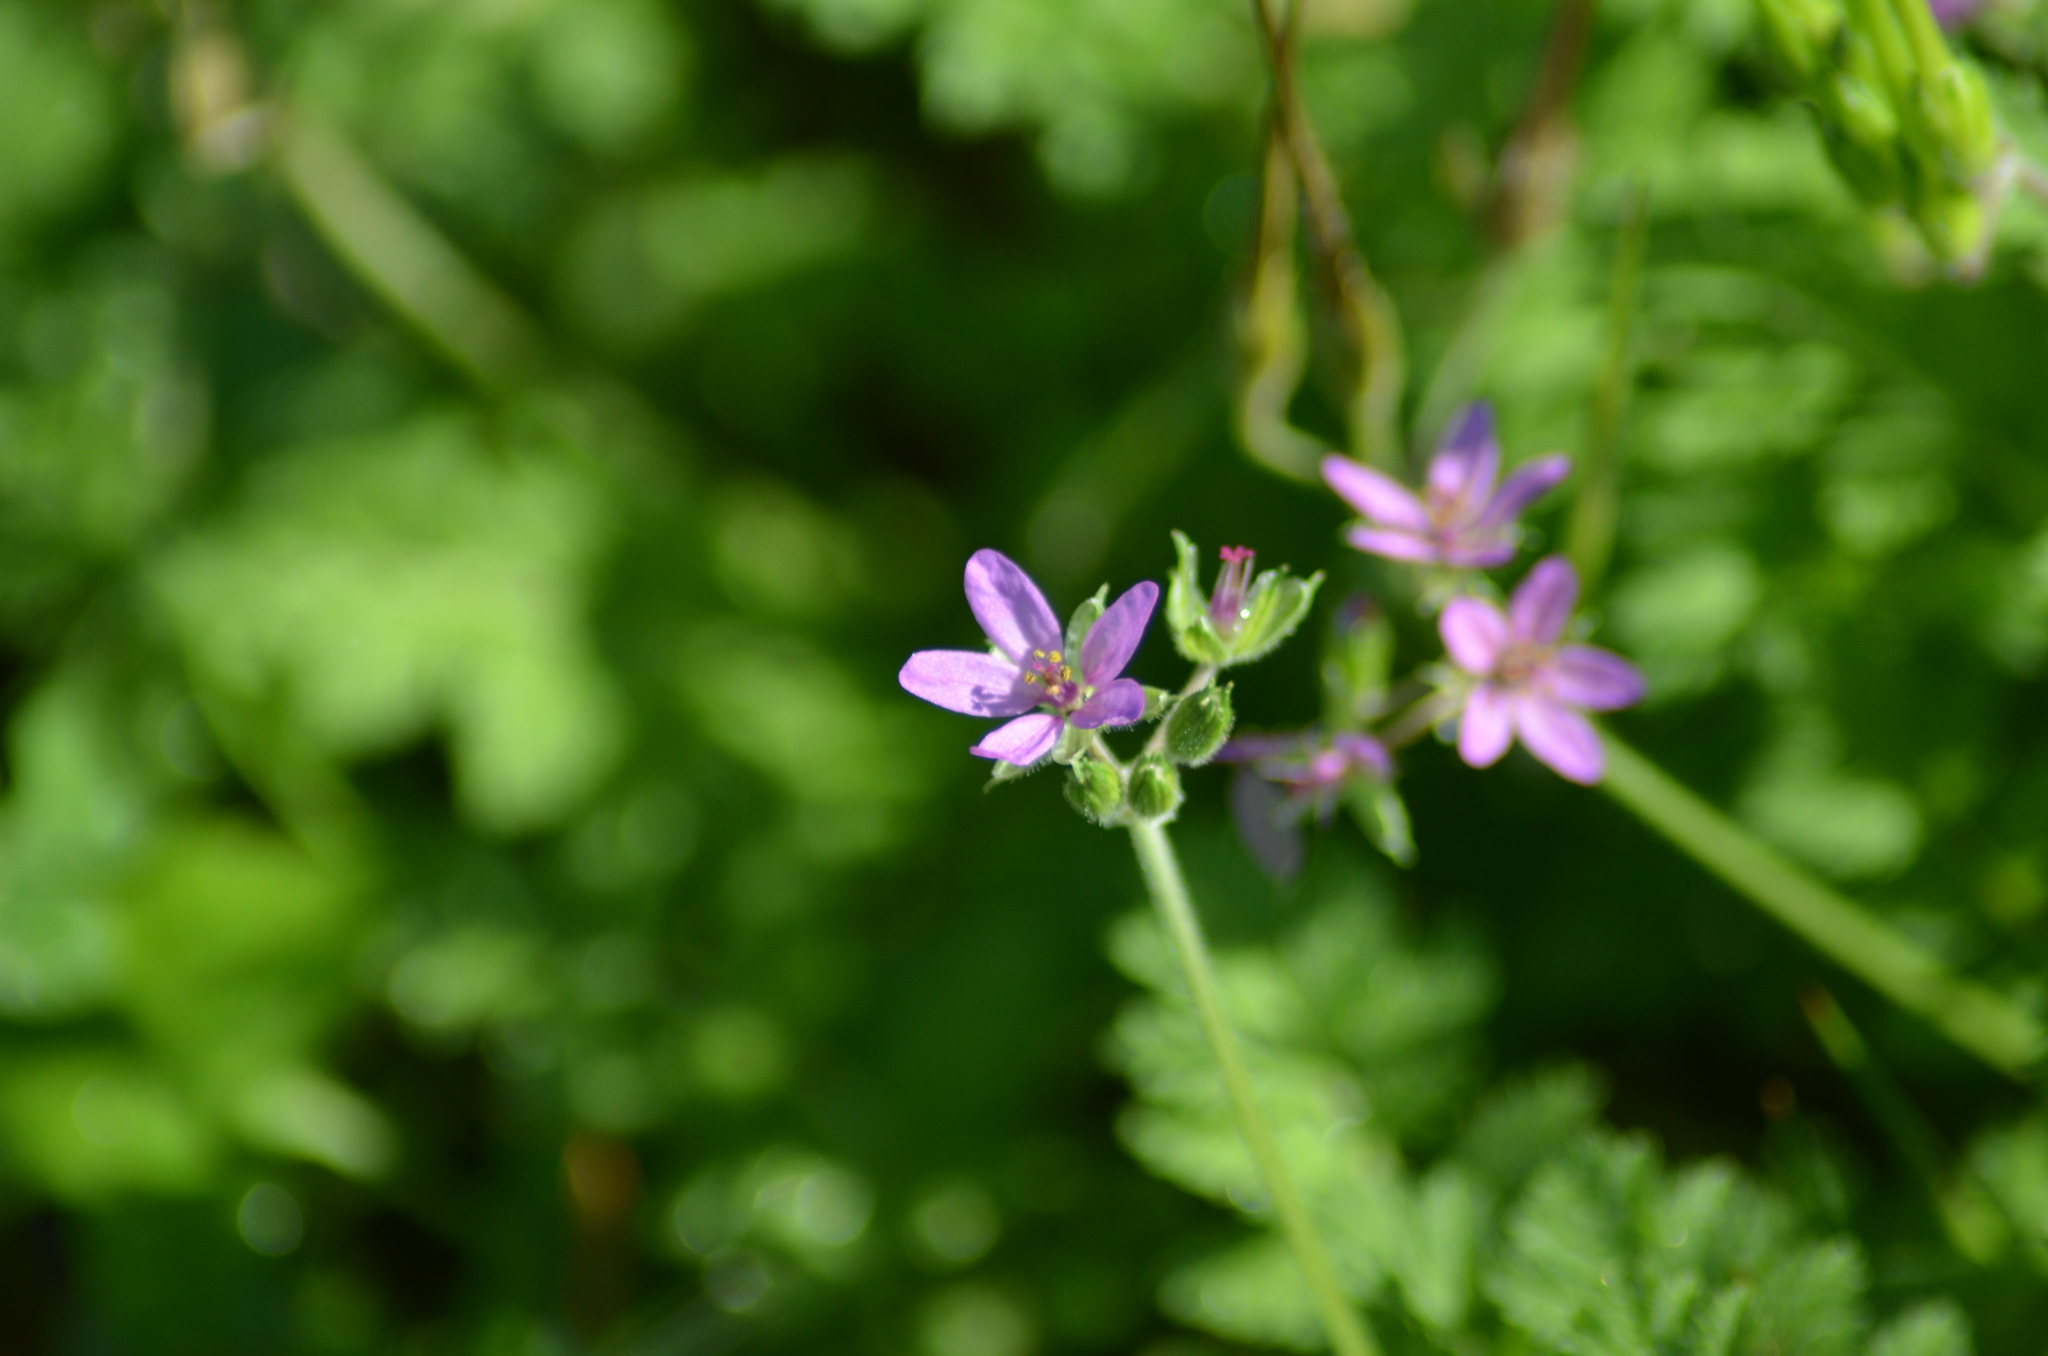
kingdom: Plantae
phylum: Tracheophyta
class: Magnoliopsida
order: Geraniales
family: Geraniaceae
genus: Erodium
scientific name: Erodium moschatum
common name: Musk stork's-bill
